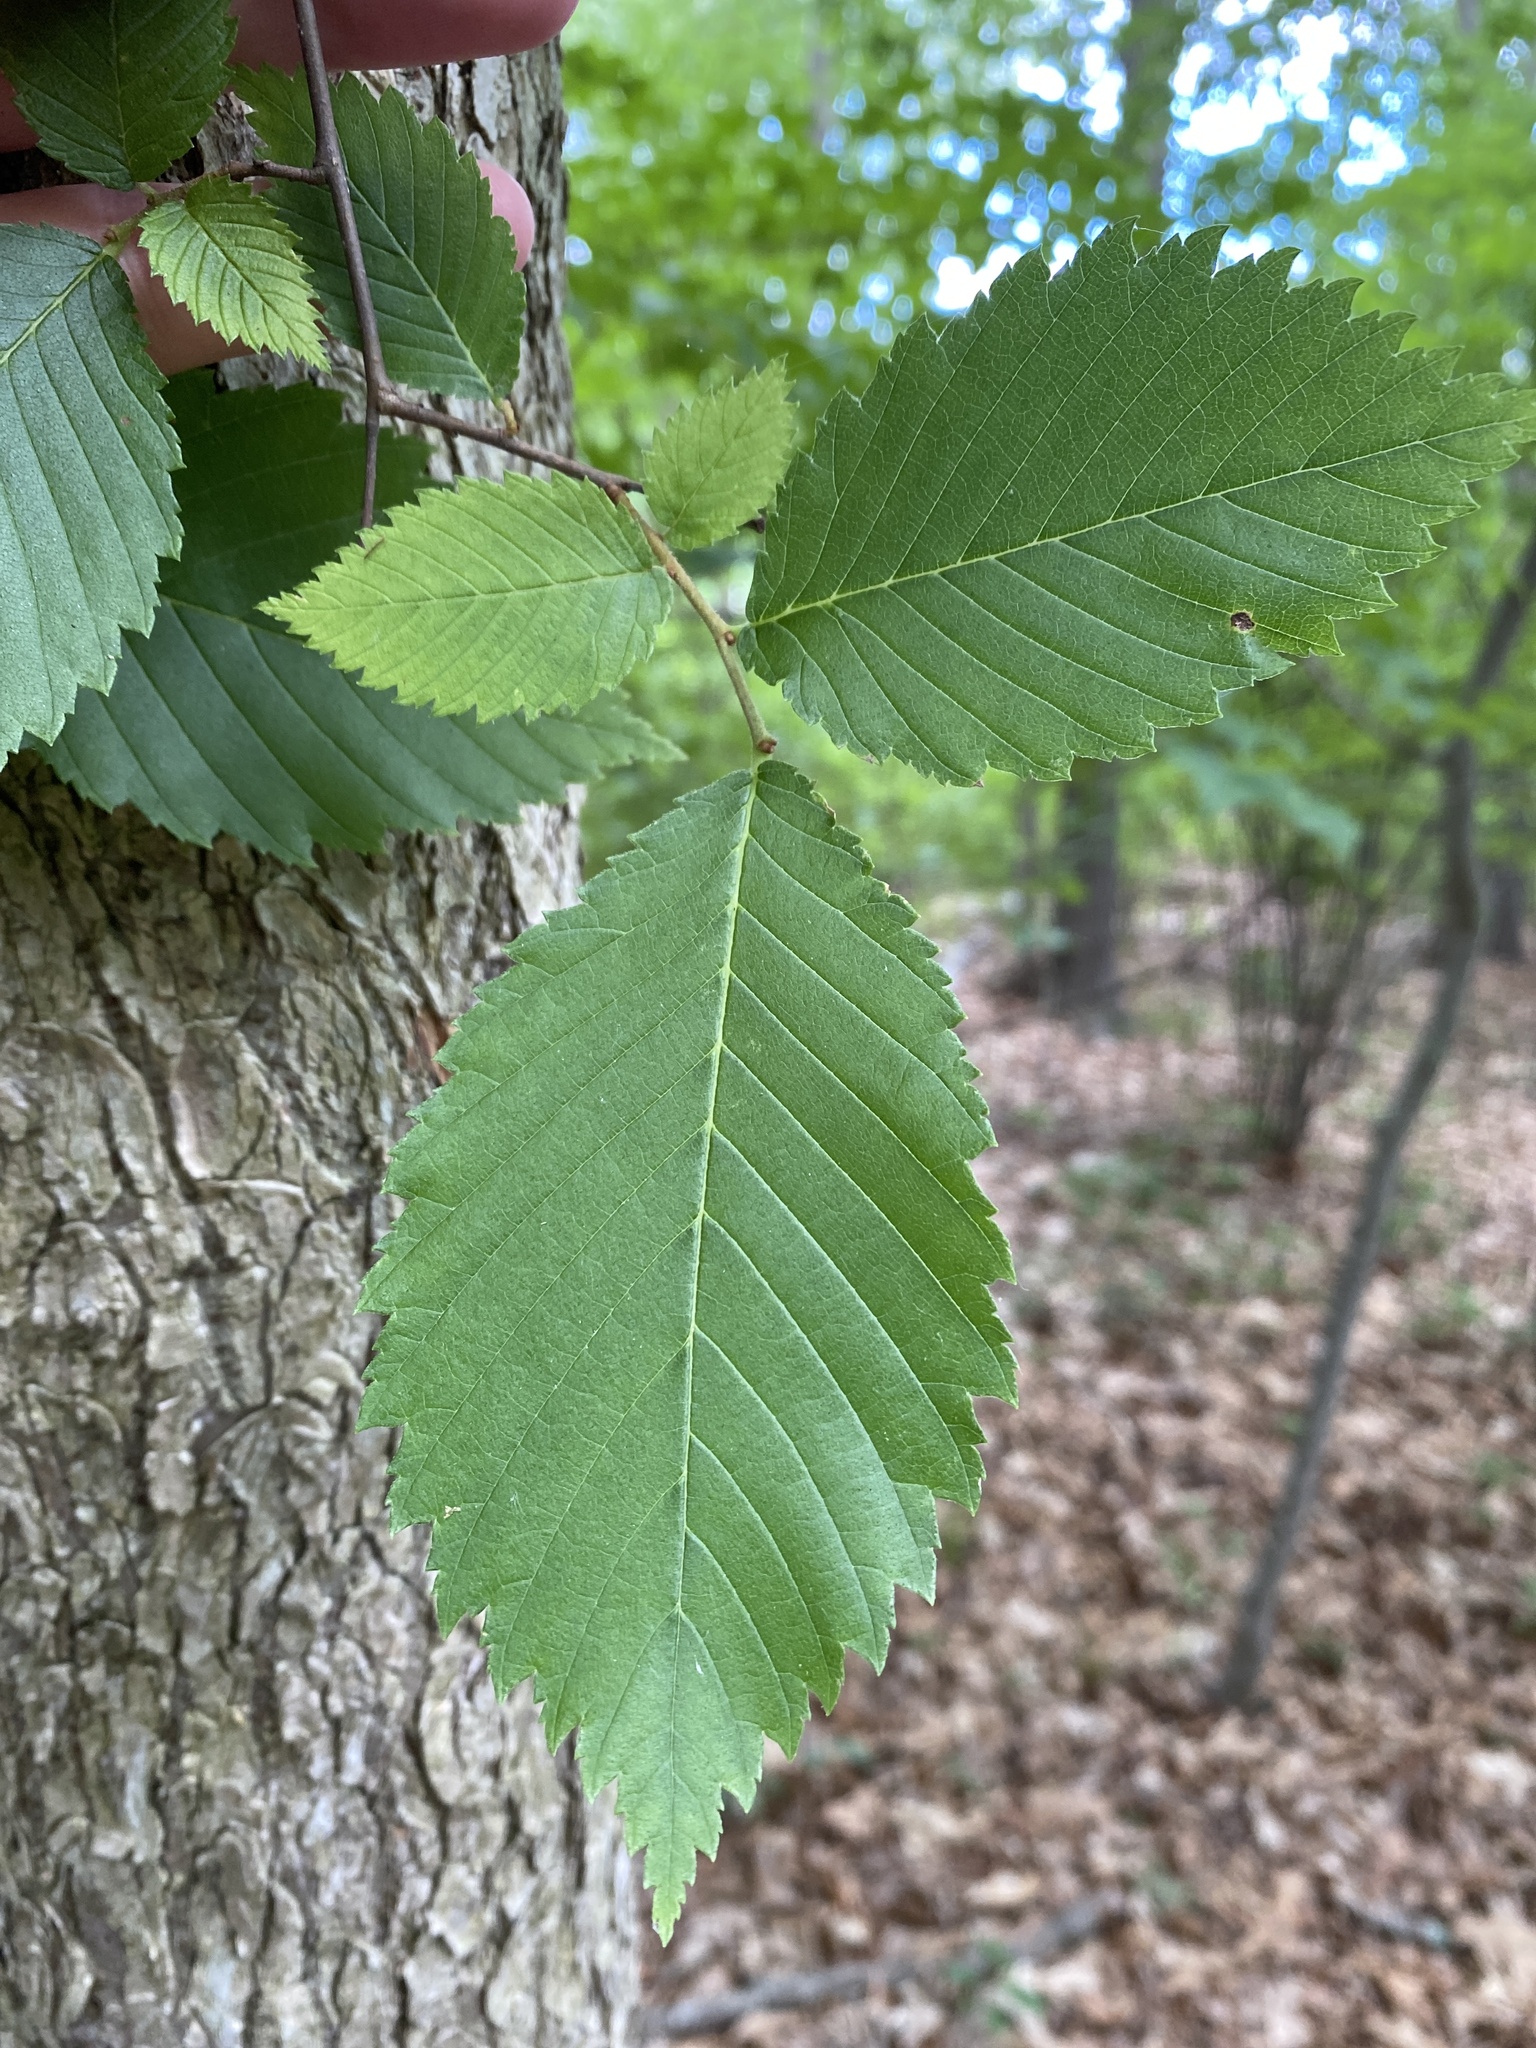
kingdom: Plantae
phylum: Tracheophyta
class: Magnoliopsida
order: Rosales
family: Ulmaceae
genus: Ulmus
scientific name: Ulmus americana
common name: American elm
